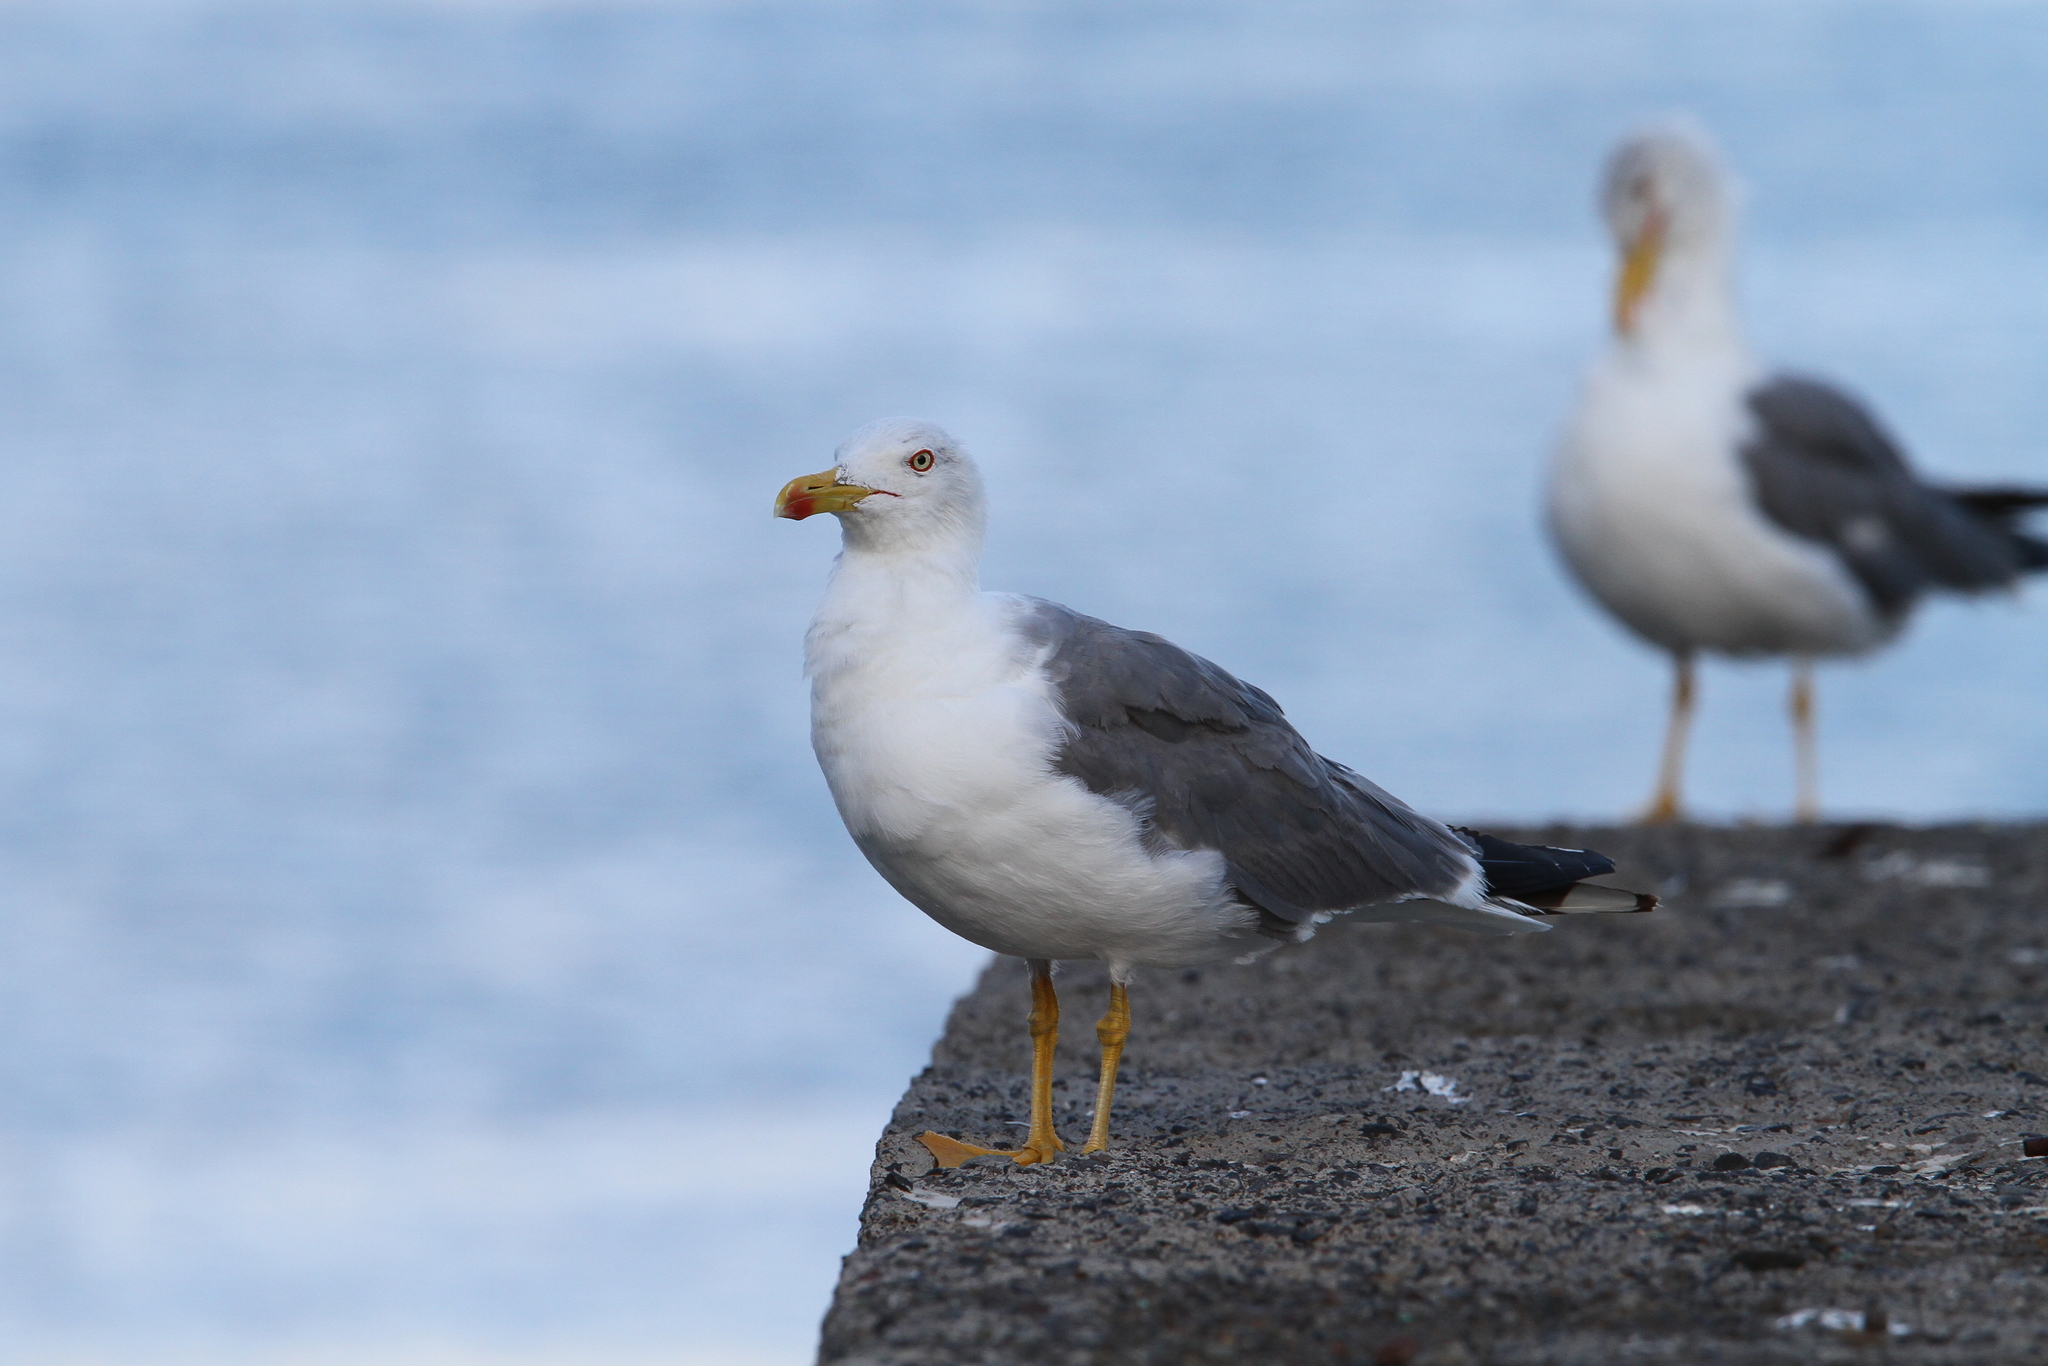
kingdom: Animalia
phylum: Chordata
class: Aves
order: Charadriiformes
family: Laridae
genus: Larus
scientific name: Larus michahellis
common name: Yellow-legged gull
